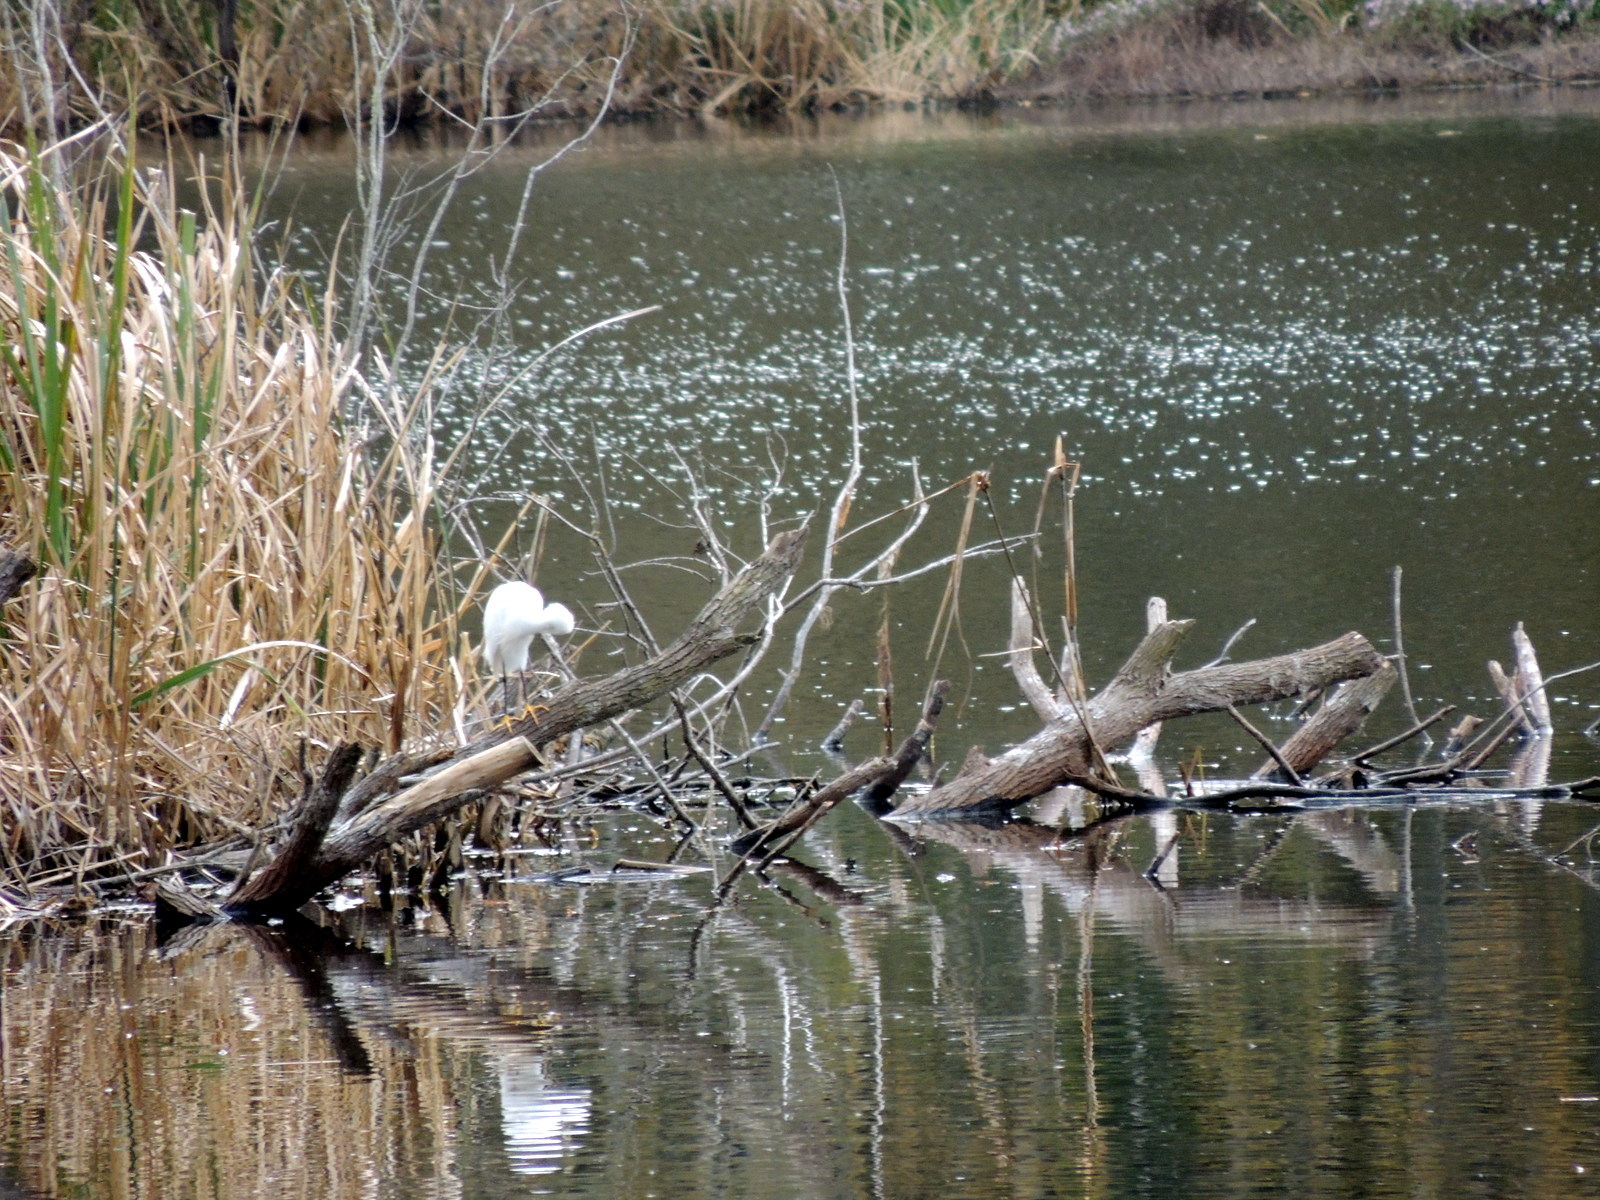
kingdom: Animalia
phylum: Chordata
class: Aves
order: Pelecaniformes
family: Ardeidae
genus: Egretta
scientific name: Egretta thula
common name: Snowy egret
